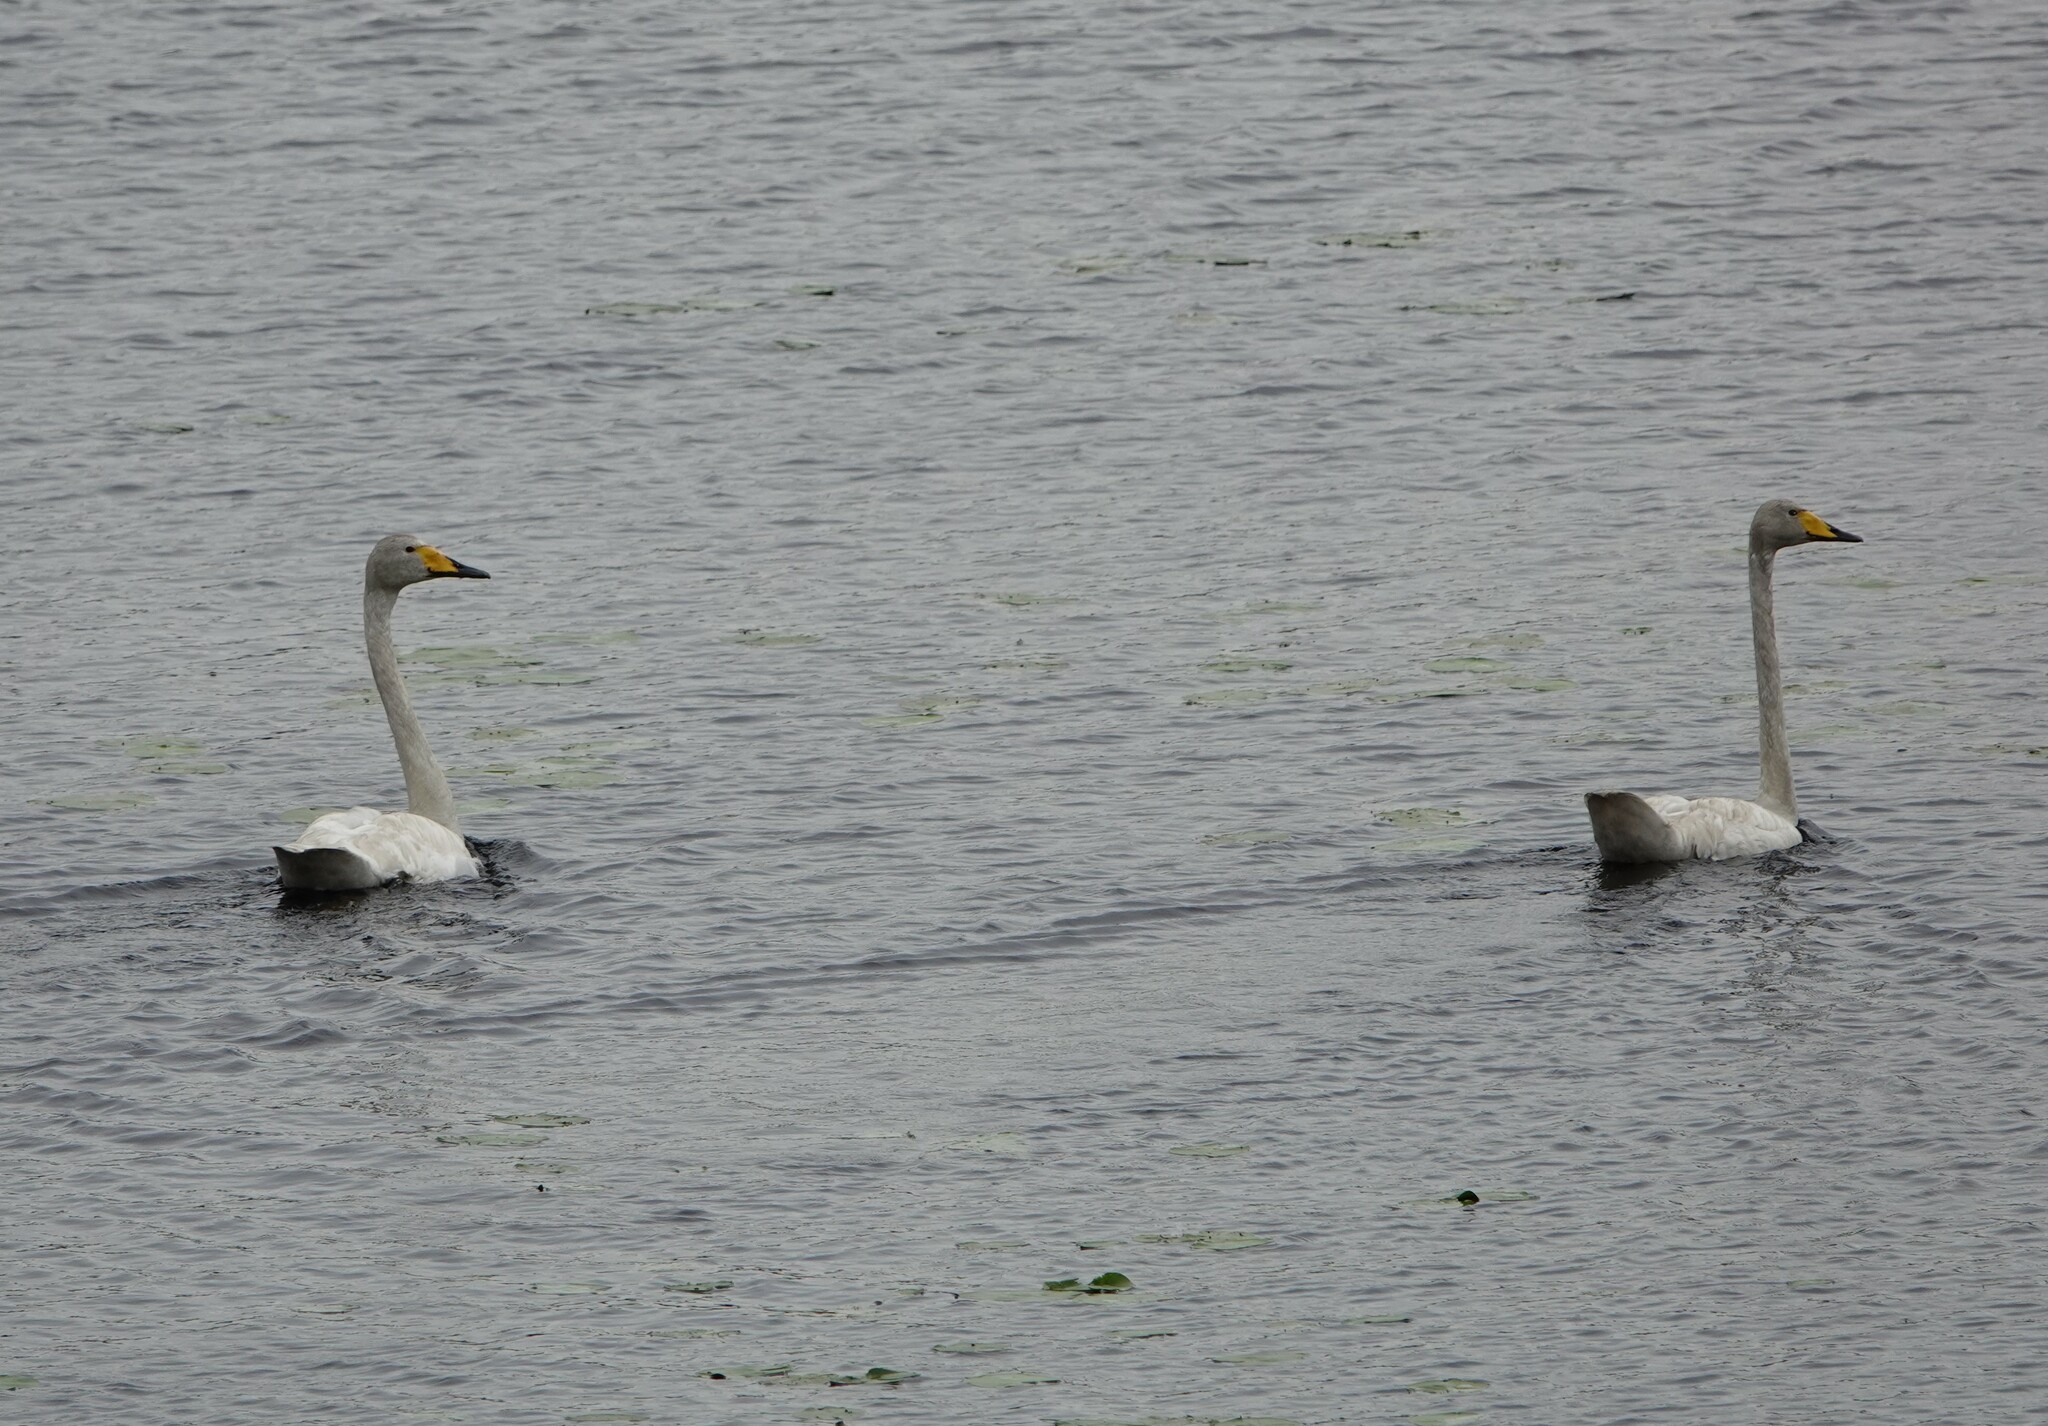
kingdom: Animalia
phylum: Chordata
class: Aves
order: Anseriformes
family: Anatidae
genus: Cygnus
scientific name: Cygnus cygnus
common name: Whooper swan
